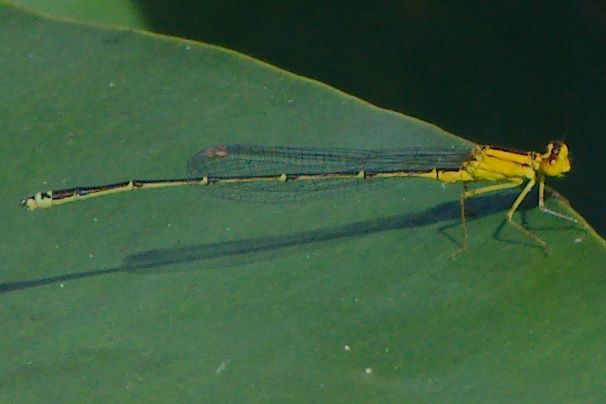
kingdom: Animalia
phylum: Arthropoda
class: Insecta
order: Odonata
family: Coenagrionidae
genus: Enallagma
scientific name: Enallagma vesperum
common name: Vesper bluet
